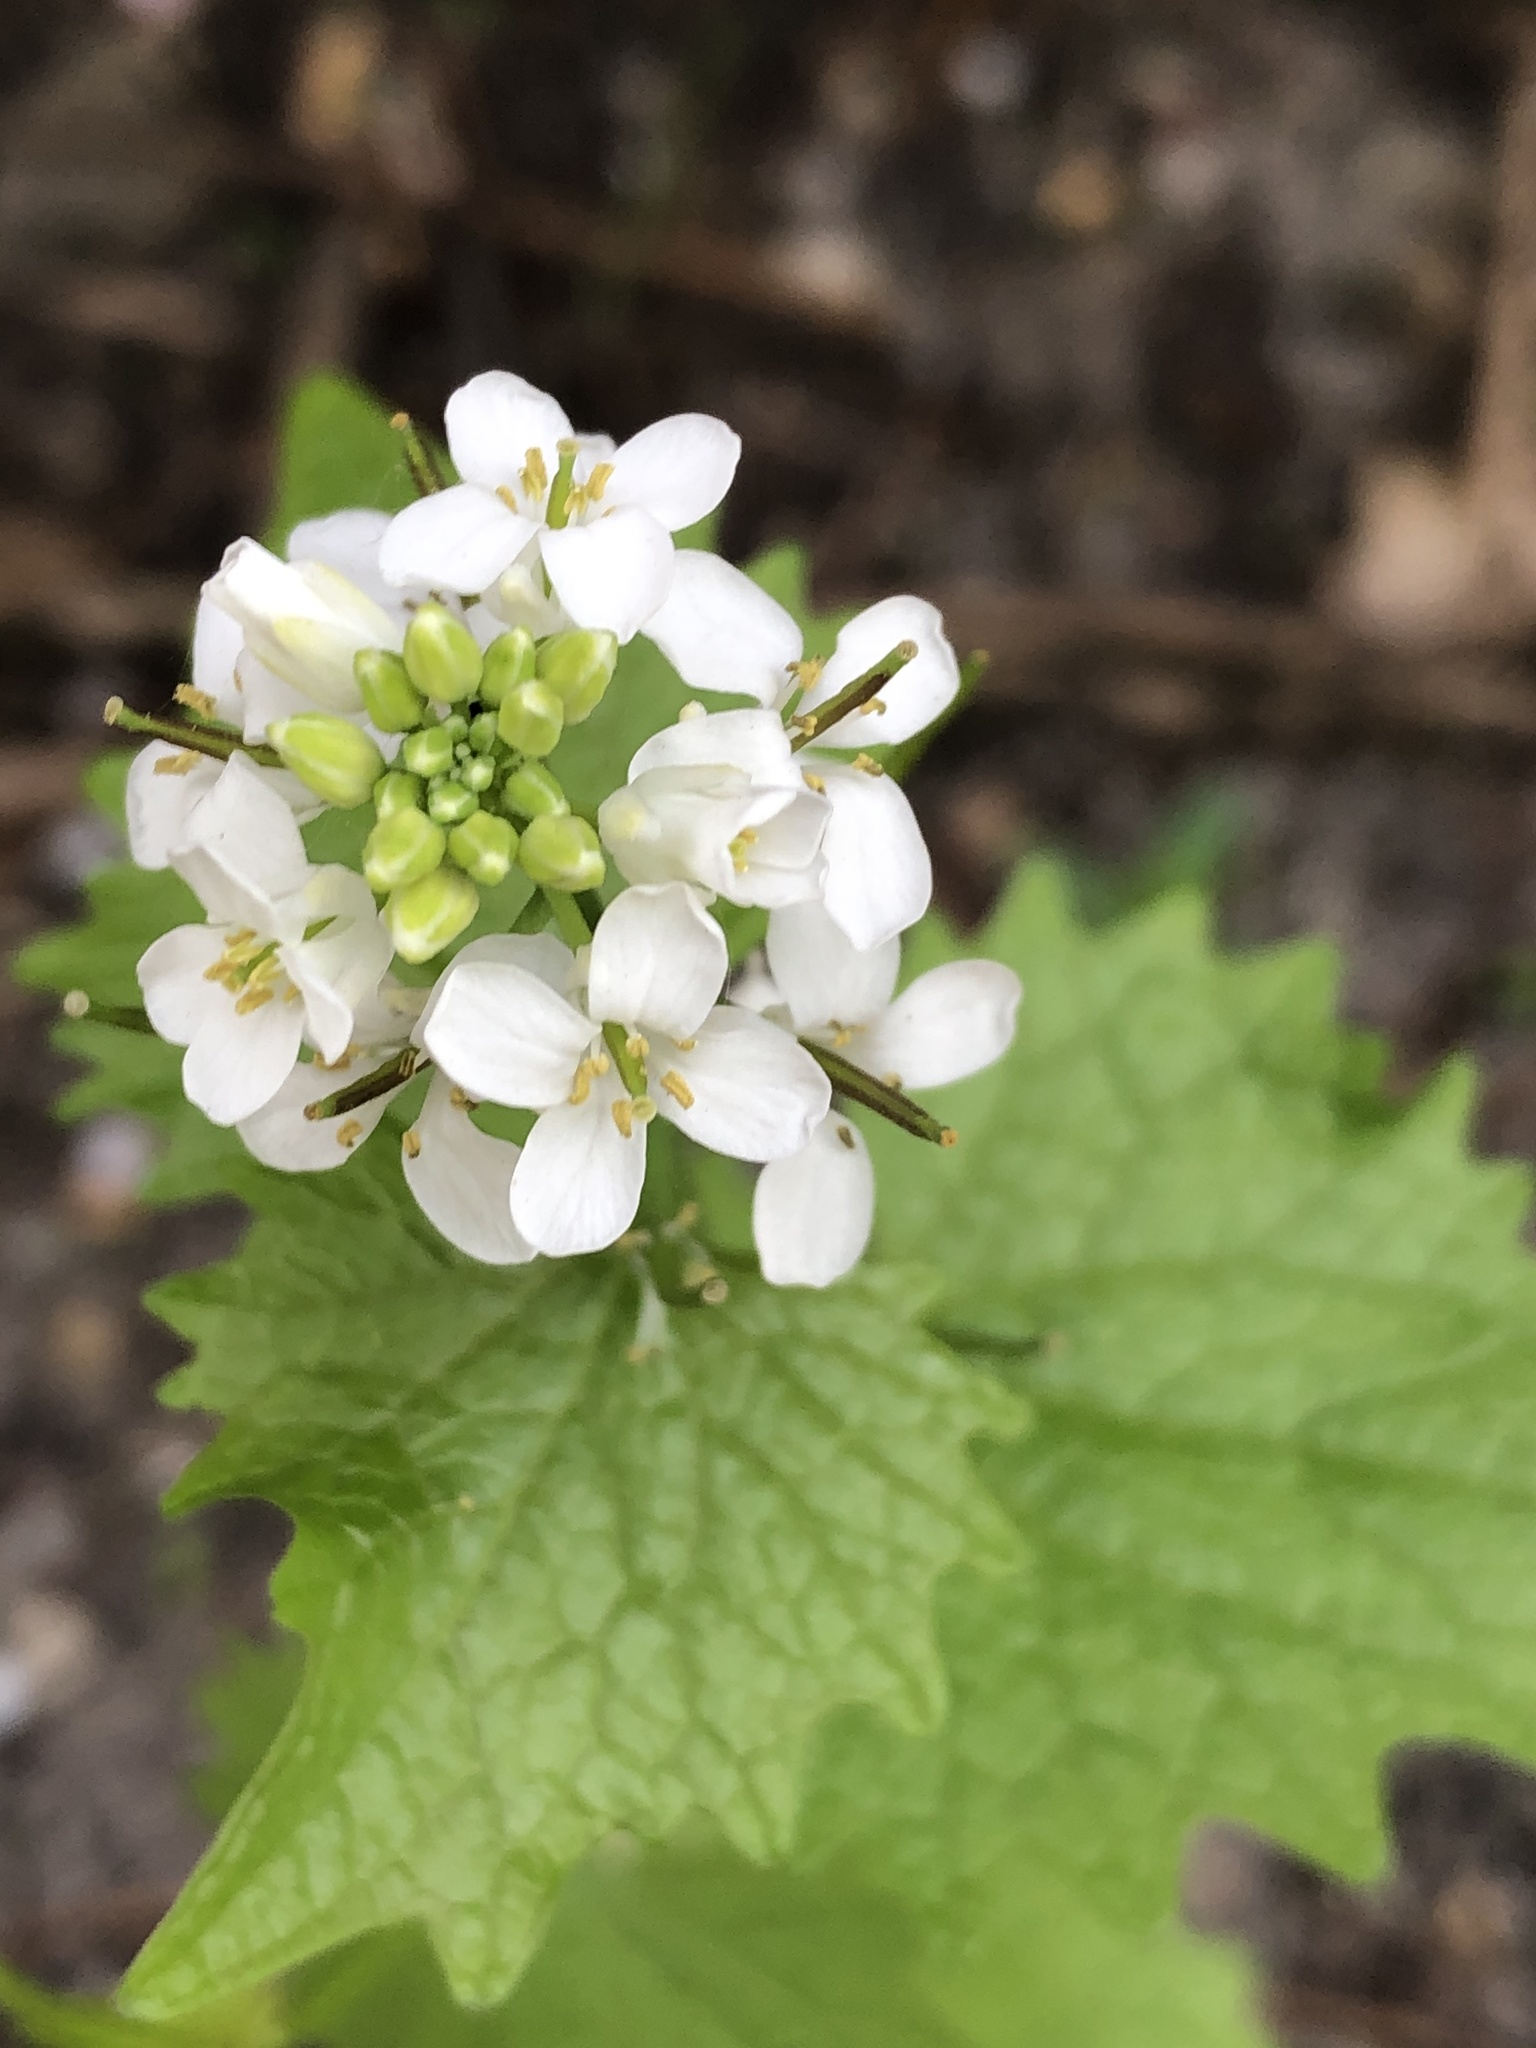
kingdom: Plantae
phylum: Tracheophyta
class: Magnoliopsida
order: Brassicales
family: Brassicaceae
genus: Alliaria
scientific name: Alliaria petiolata
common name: Garlic mustard
